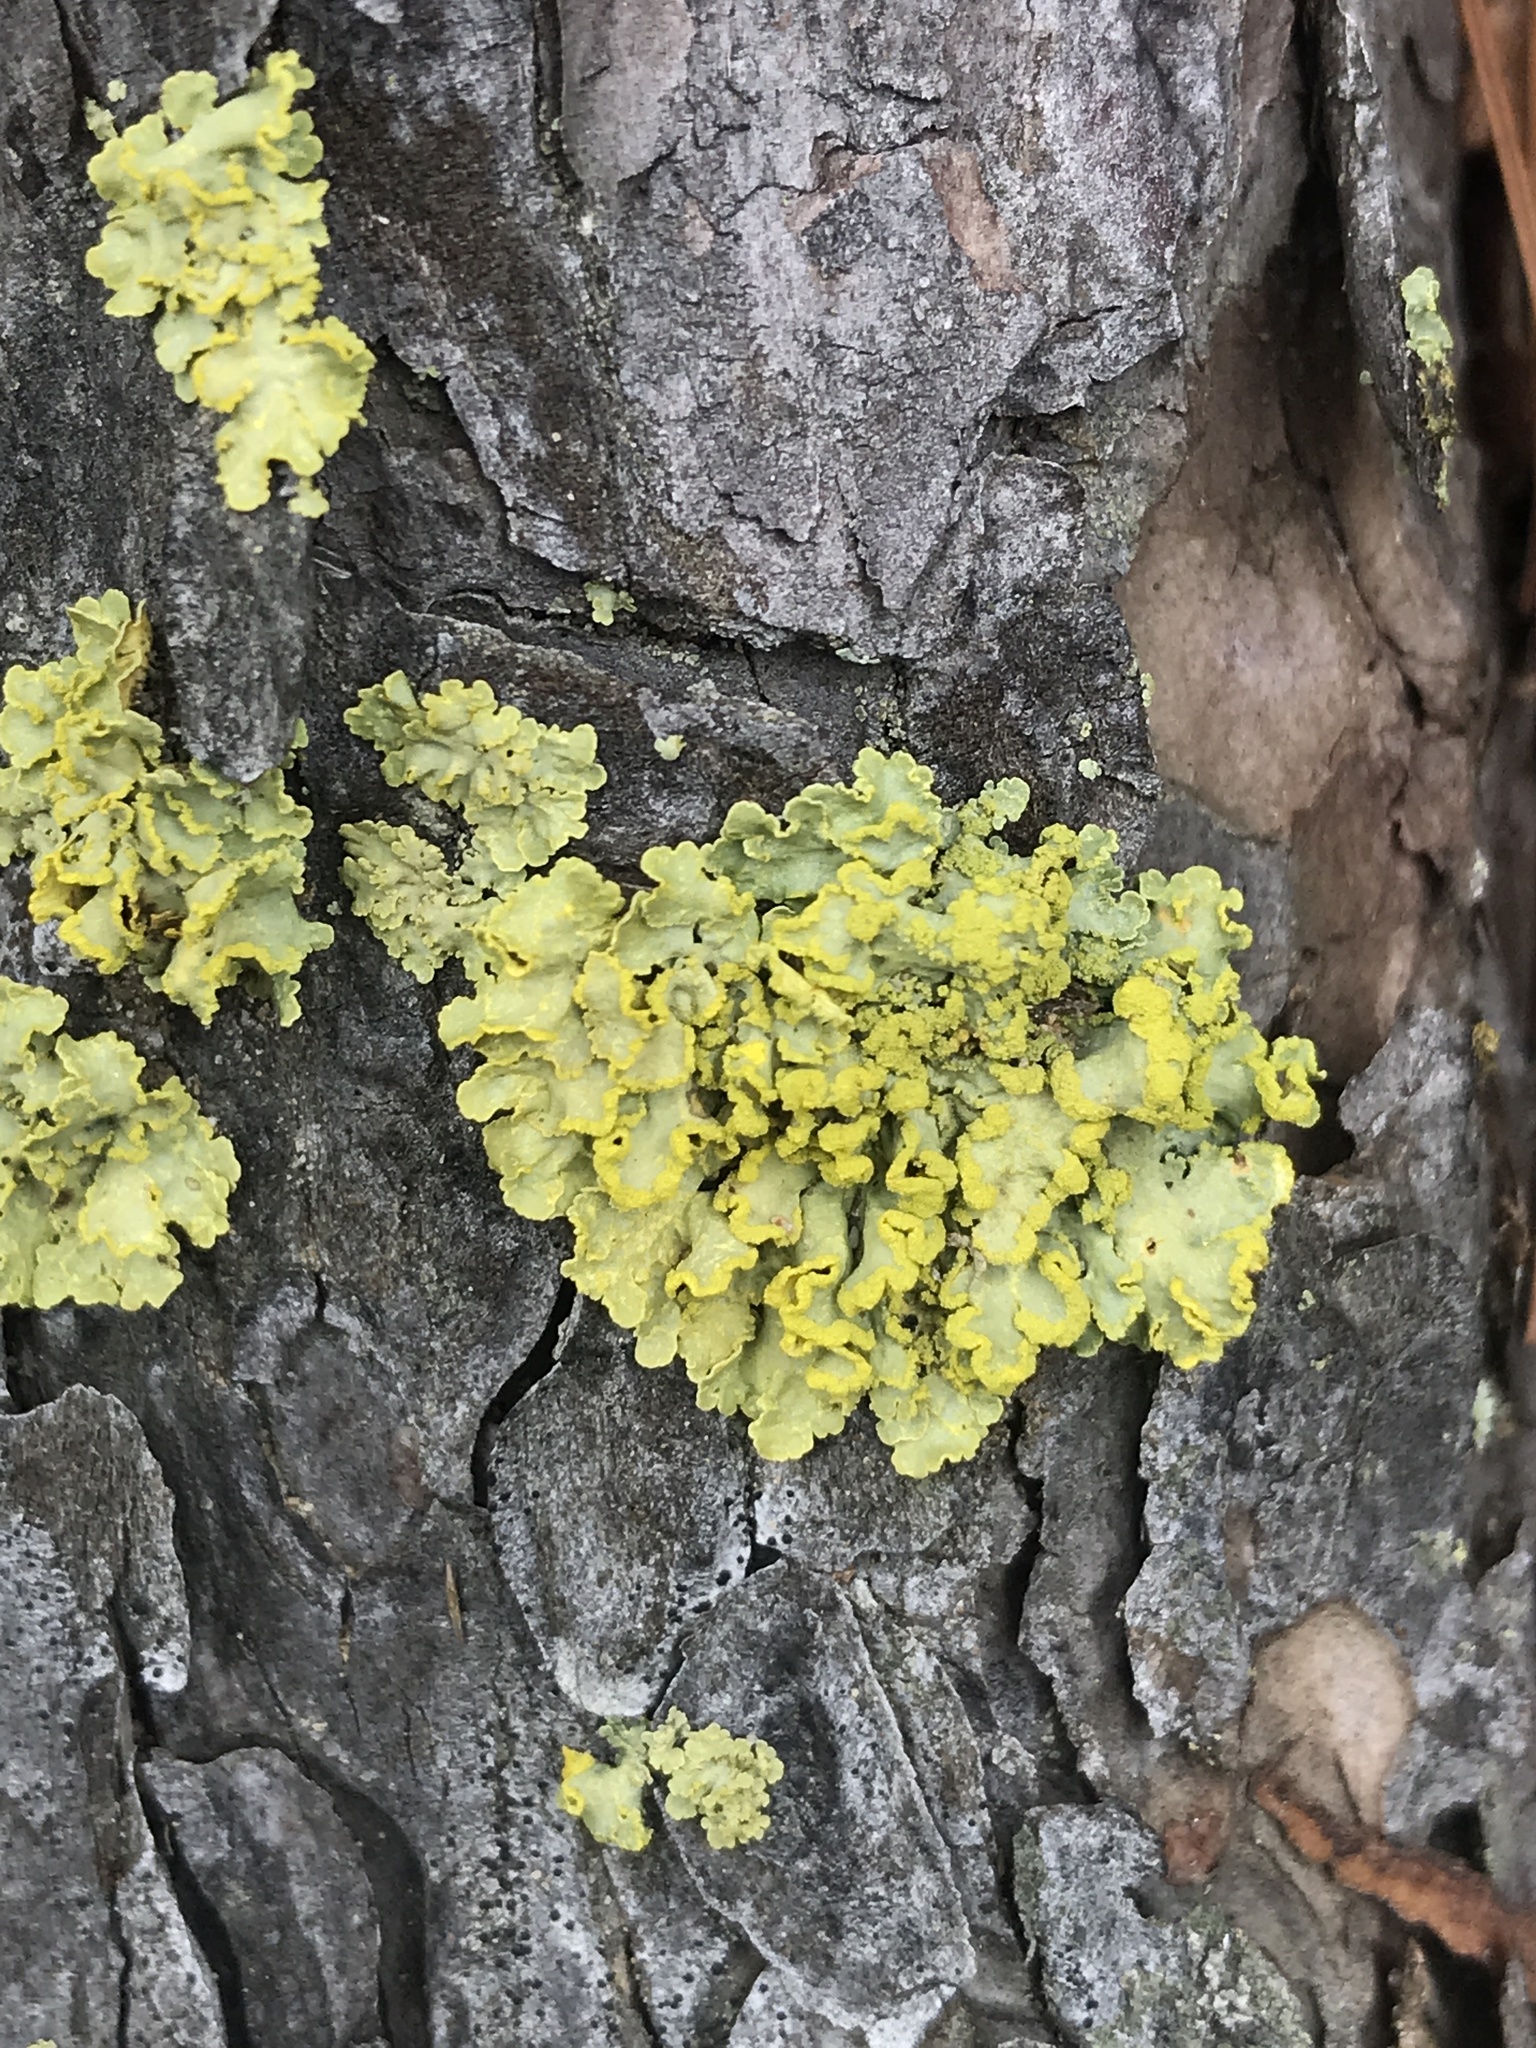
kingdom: Fungi
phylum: Ascomycota
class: Lecanoromycetes
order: Lecanorales
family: Parmeliaceae
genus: Vulpicida
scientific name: Vulpicida pinastri
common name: Powdered sunshine lichen
